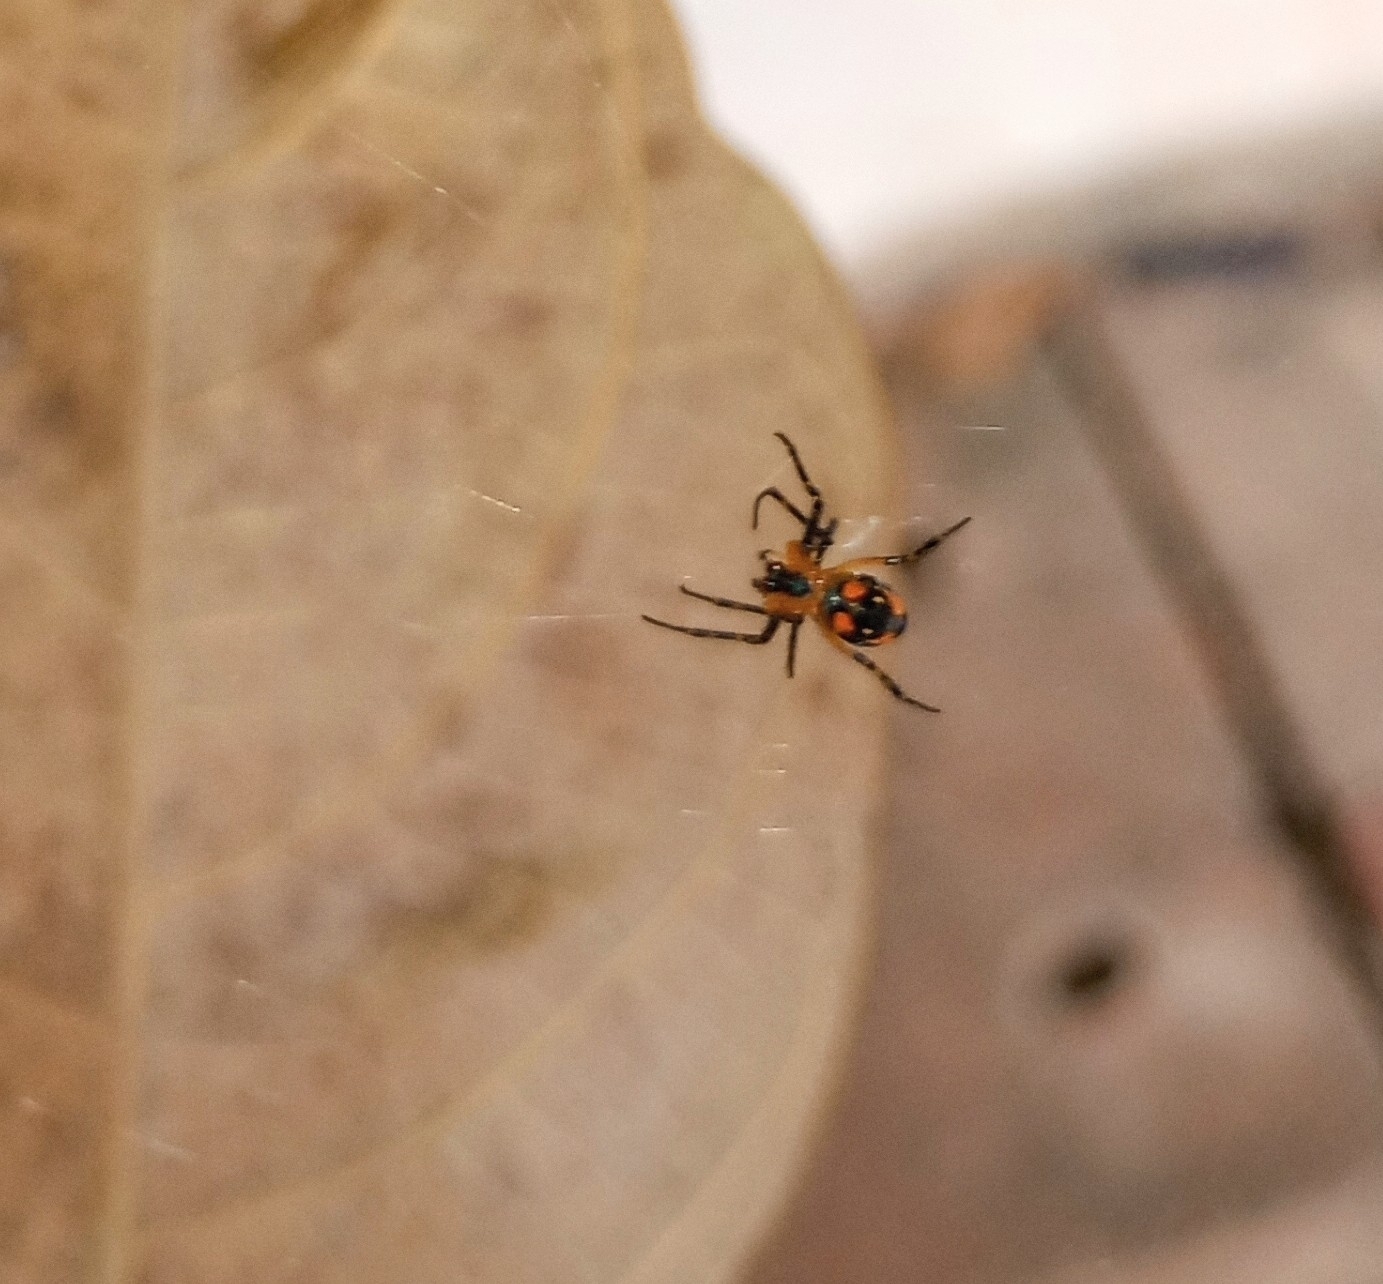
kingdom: Animalia
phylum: Arthropoda
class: Arachnida
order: Araneae
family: Tetragnathidae
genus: Leucauge
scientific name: Leucauge fastigata
